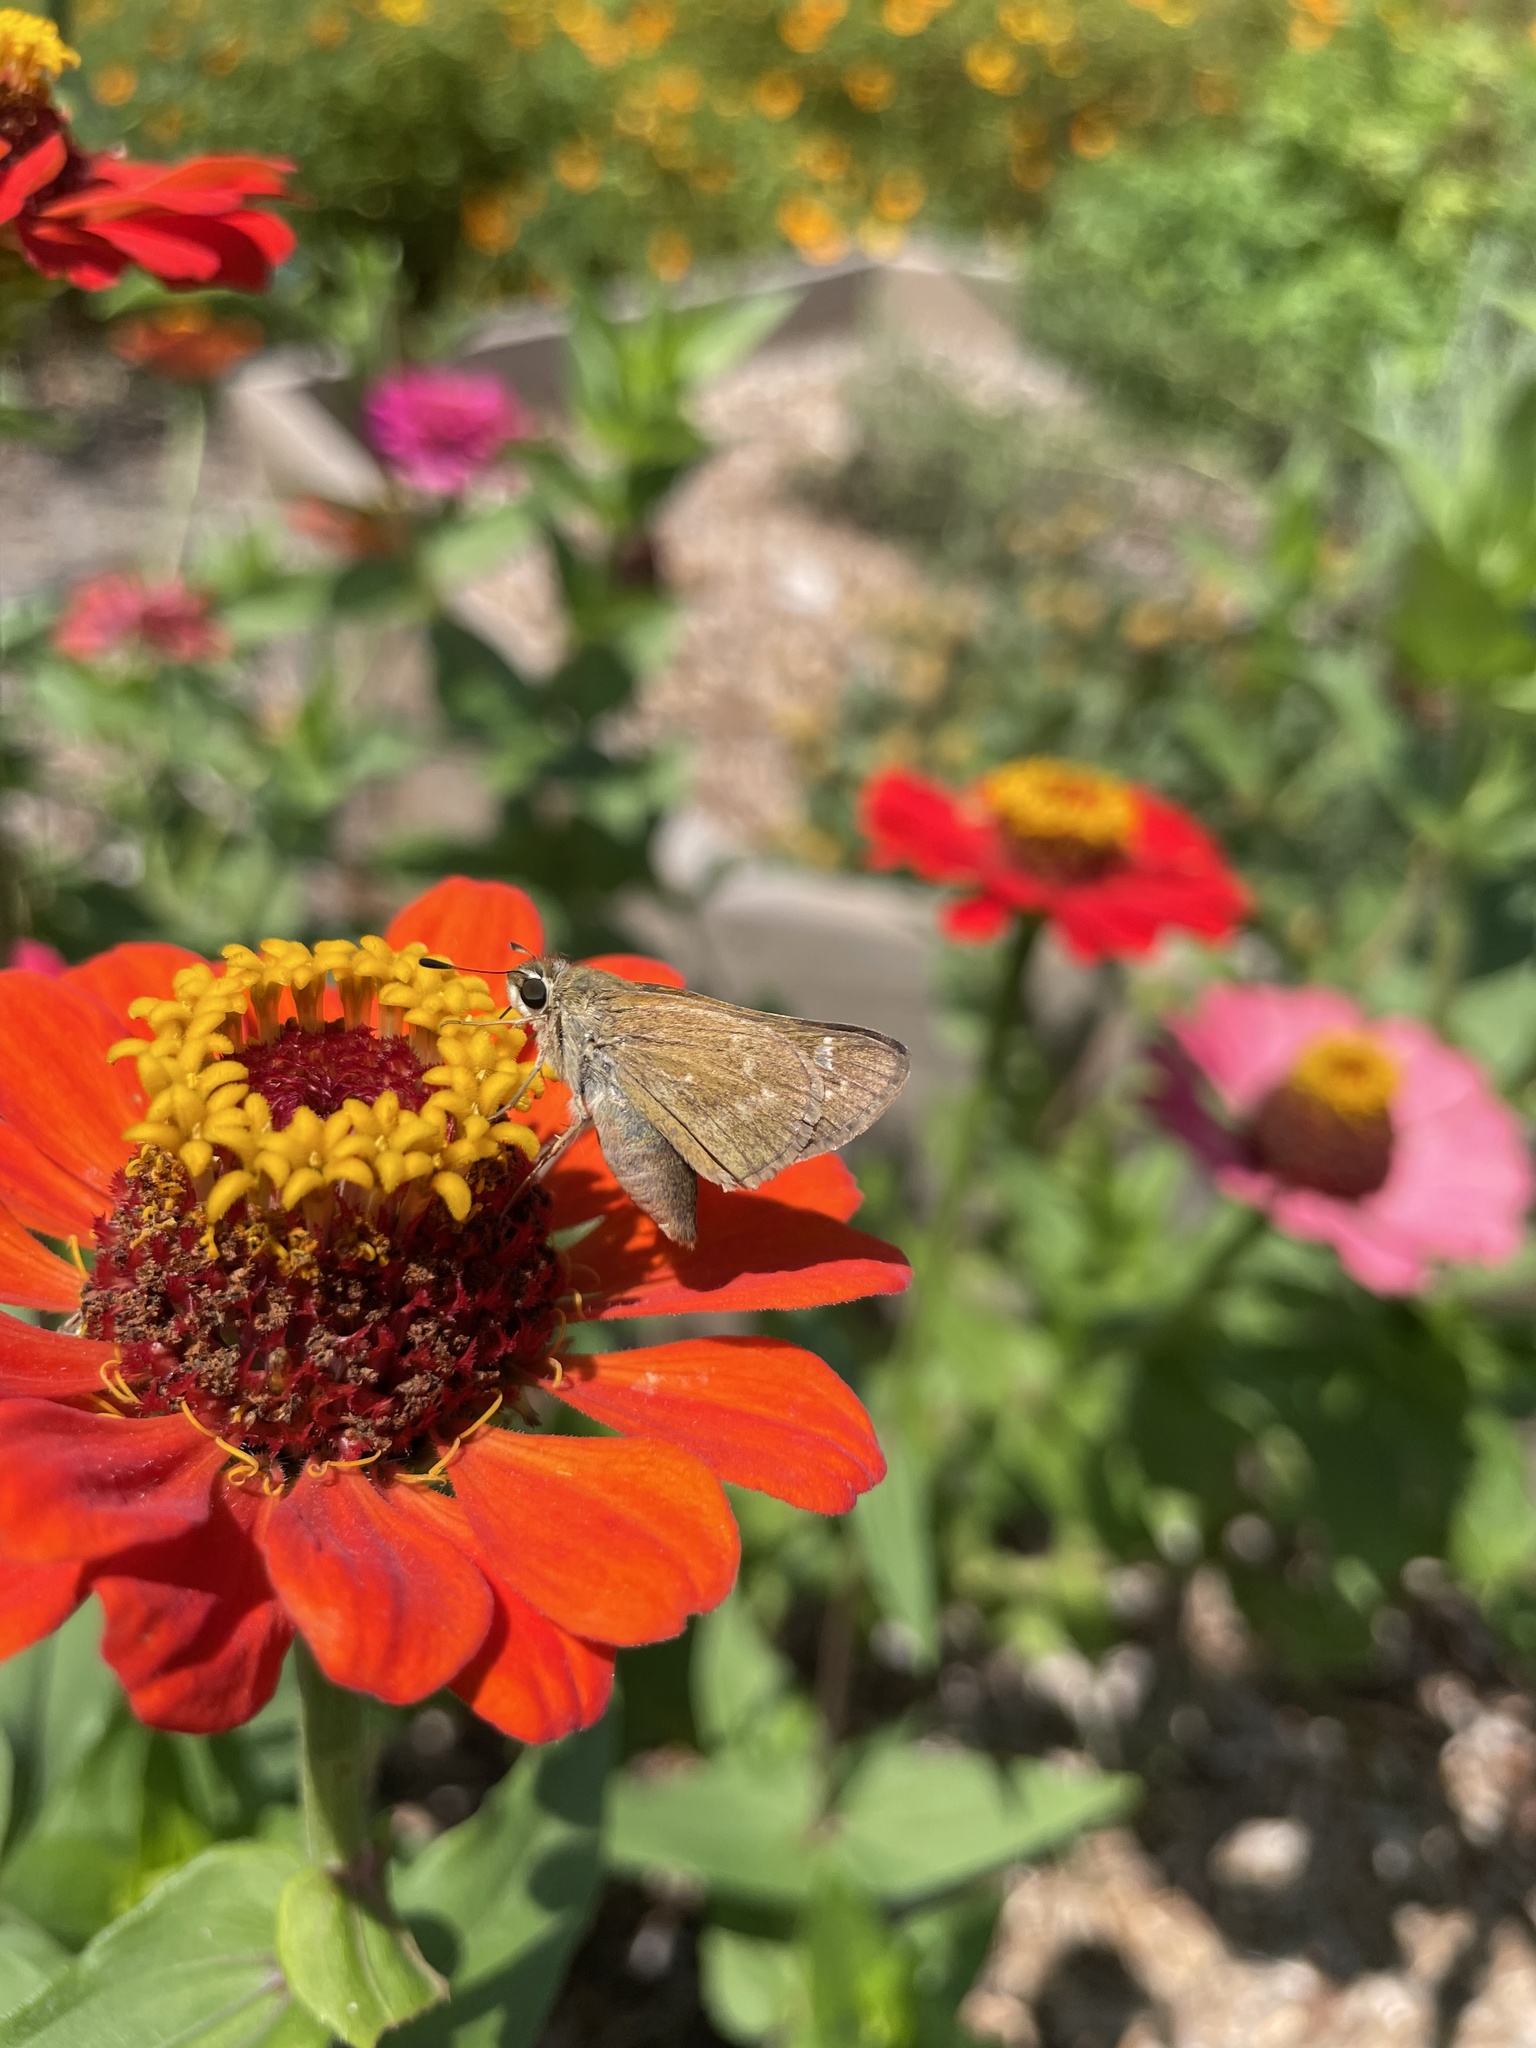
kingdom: Animalia
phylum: Arthropoda
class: Insecta
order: Lepidoptera
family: Hesperiidae
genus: Atalopedes
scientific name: Atalopedes
